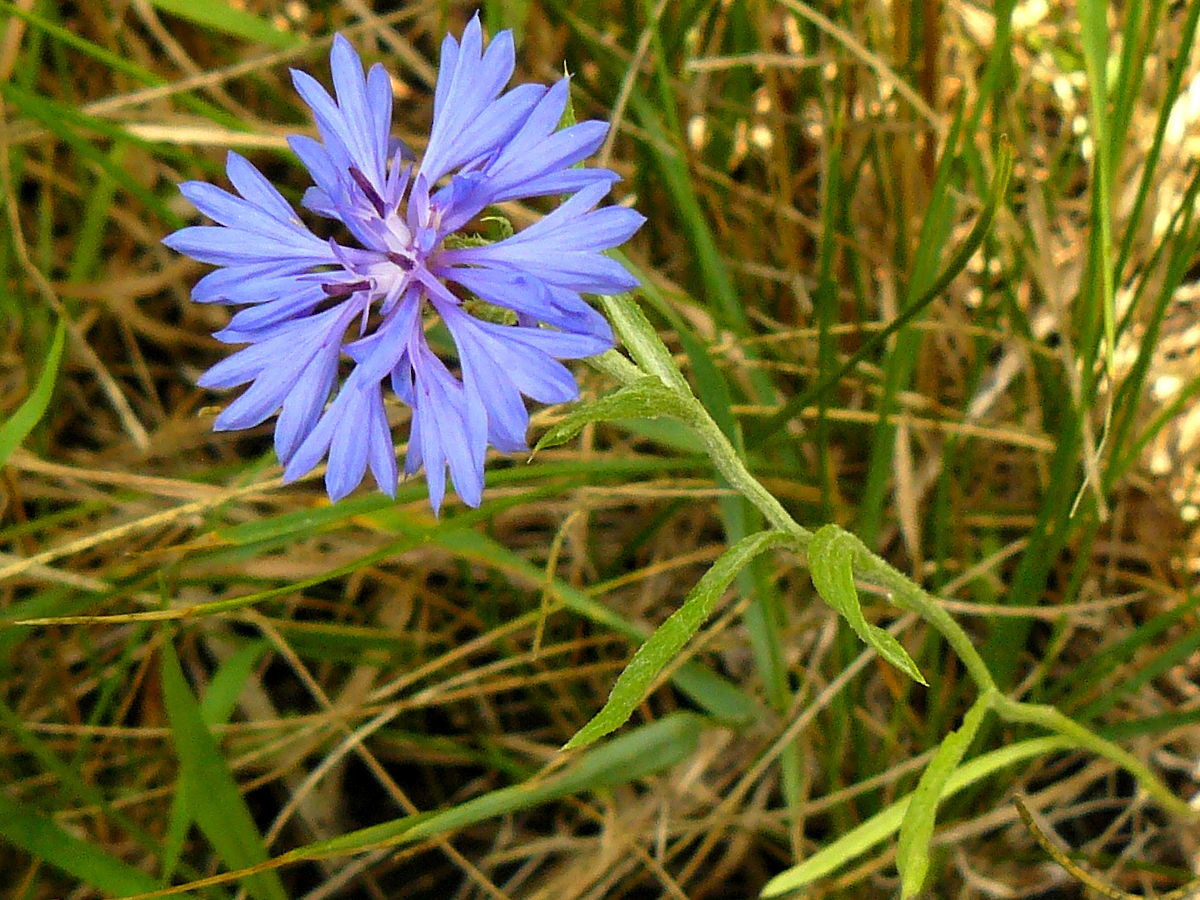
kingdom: Plantae
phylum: Tracheophyta
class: Magnoliopsida
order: Asterales
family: Asteraceae
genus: Centaurea
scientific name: Centaurea cyanus
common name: Cornflower
